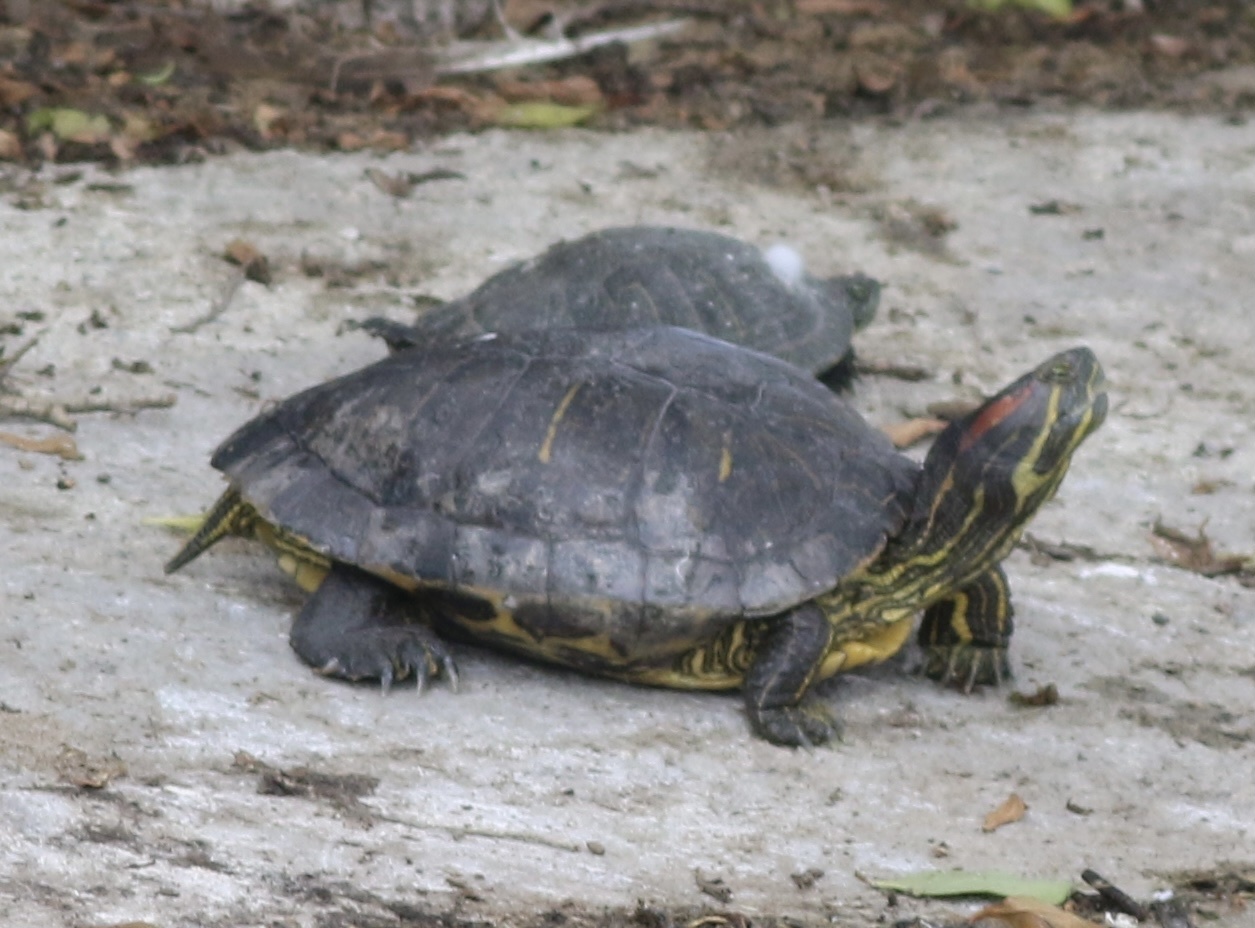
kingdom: Animalia
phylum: Chordata
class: Testudines
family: Emydidae
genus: Trachemys
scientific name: Trachemys scripta
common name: Slider
